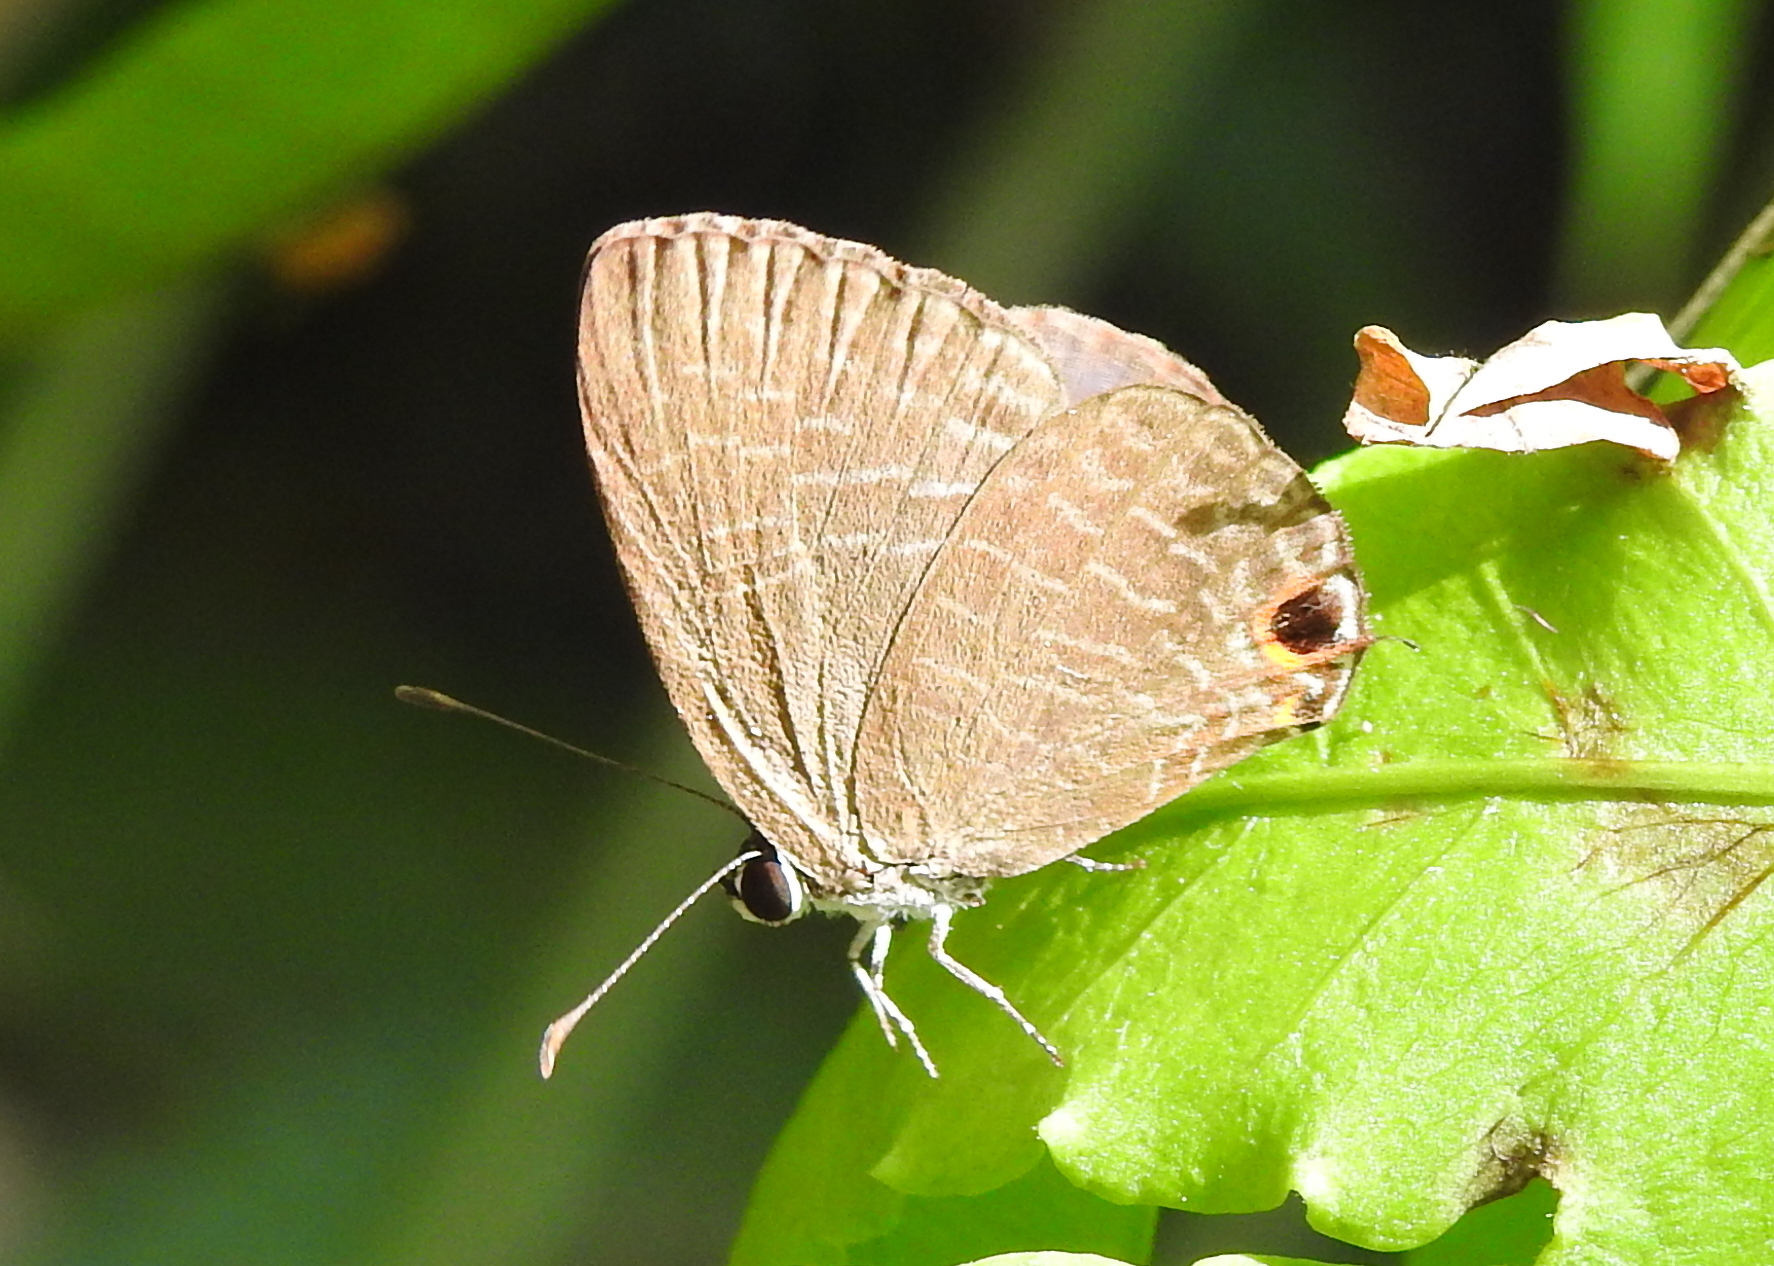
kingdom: Animalia
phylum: Arthropoda
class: Insecta
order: Lepidoptera
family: Lycaenidae
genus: Jamides
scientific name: Jamides bochus
